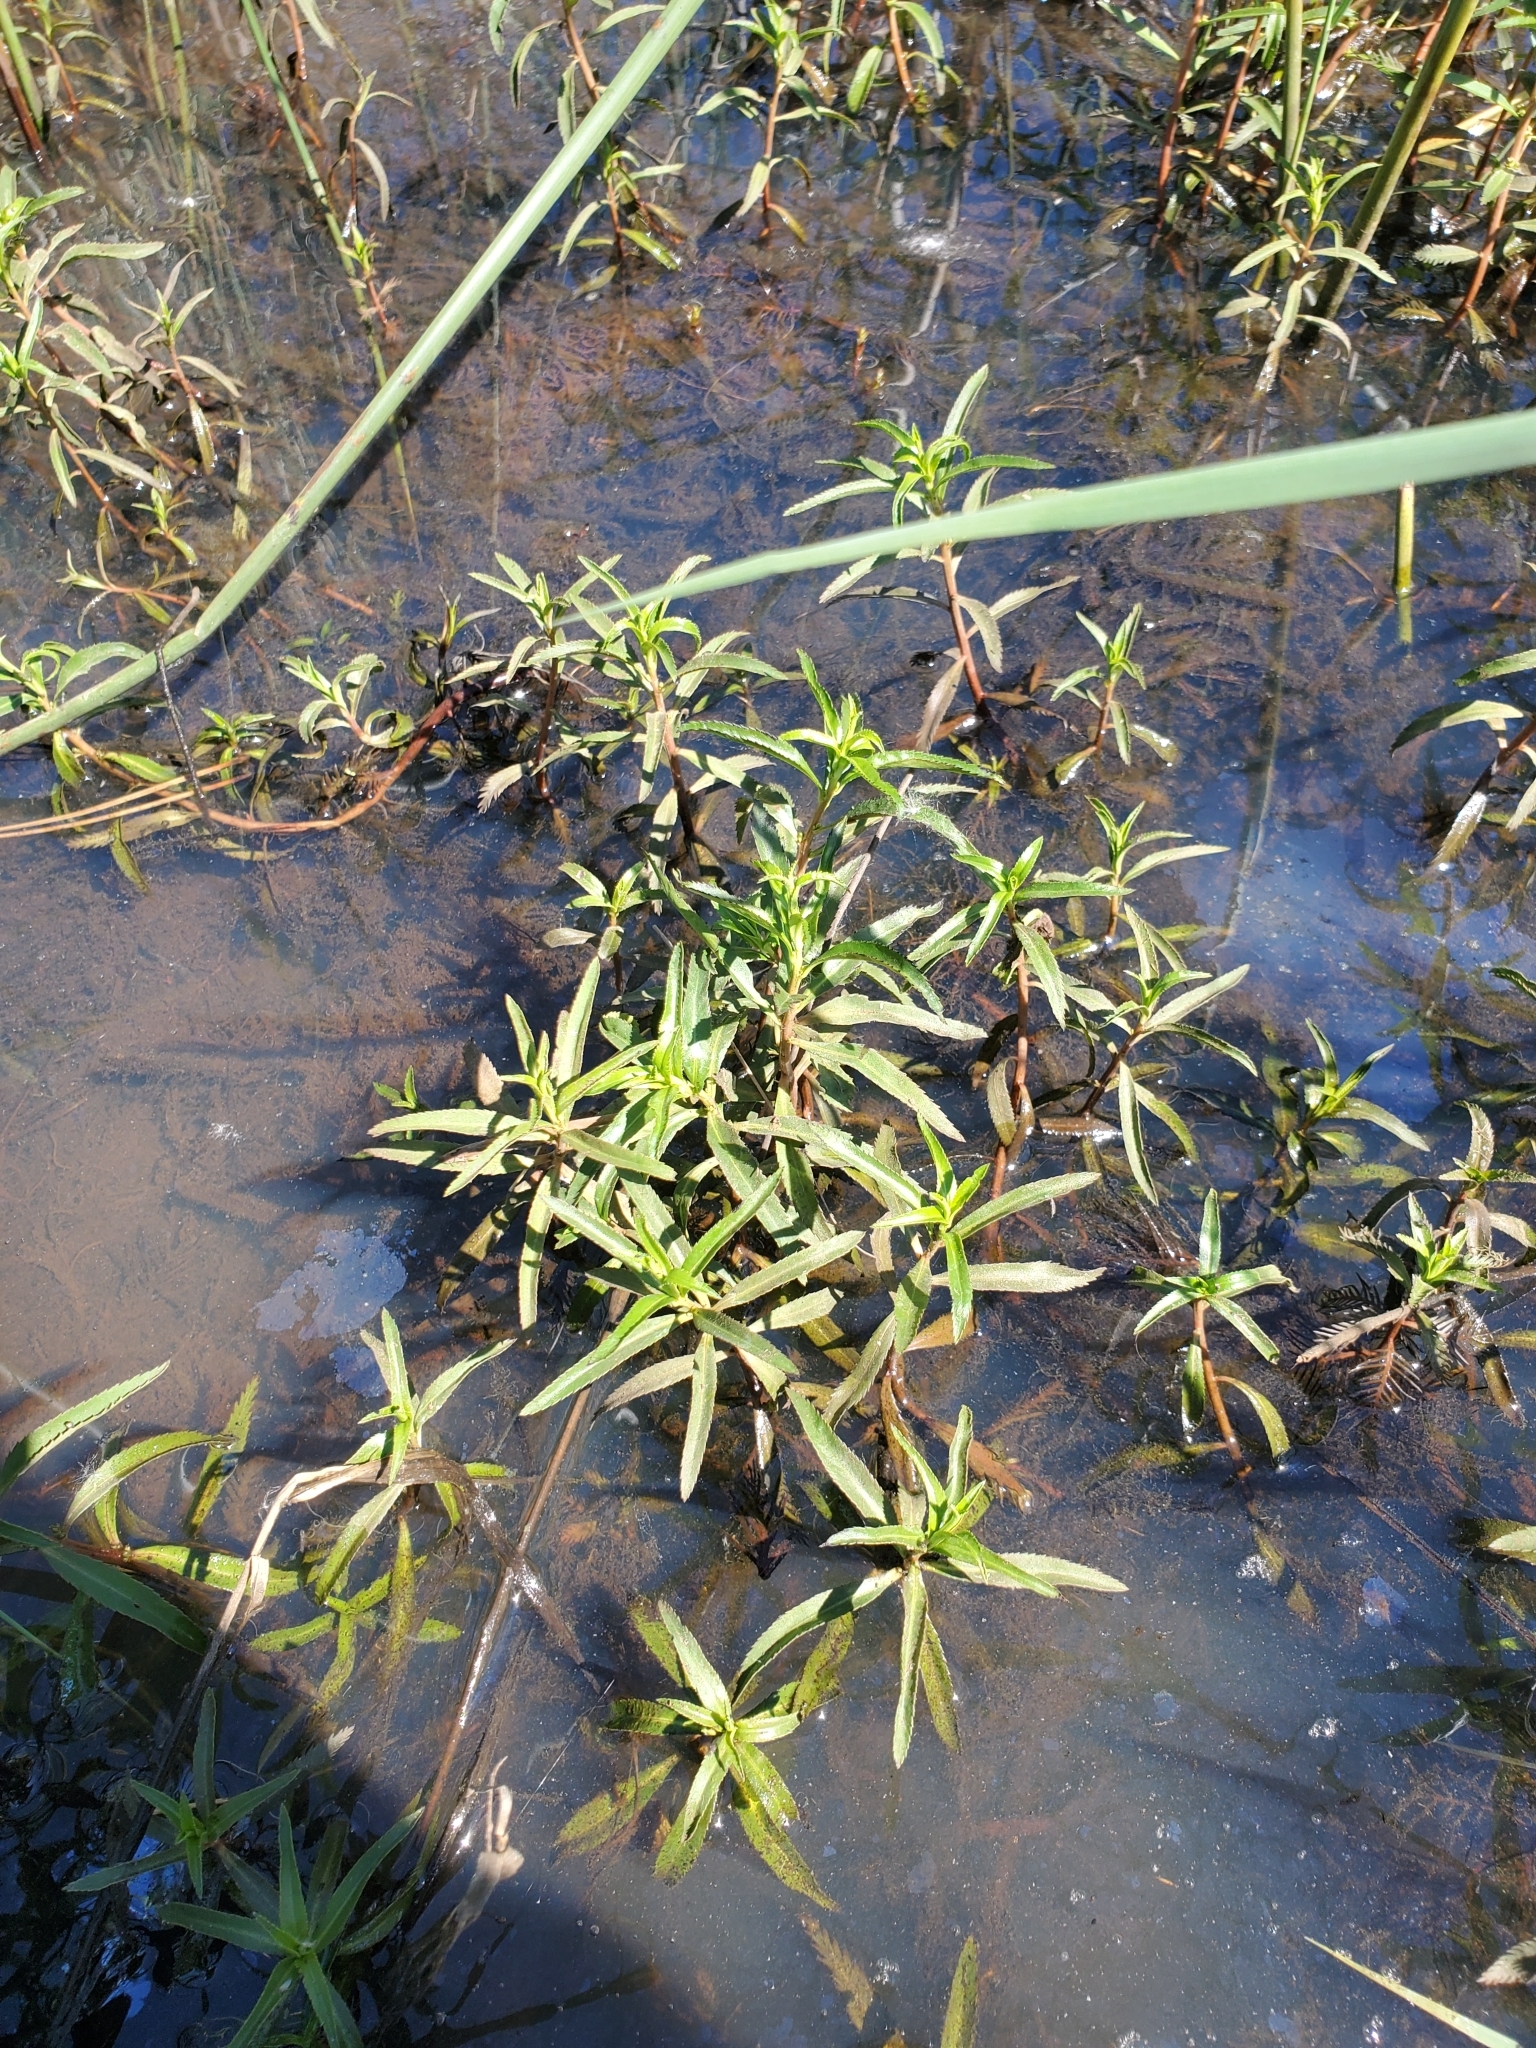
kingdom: Plantae
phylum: Tracheophyta
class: Magnoliopsida
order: Saxifragales
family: Haloragaceae
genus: Proserpinaca
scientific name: Proserpinaca palustris
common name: Marsh mermaidweed
